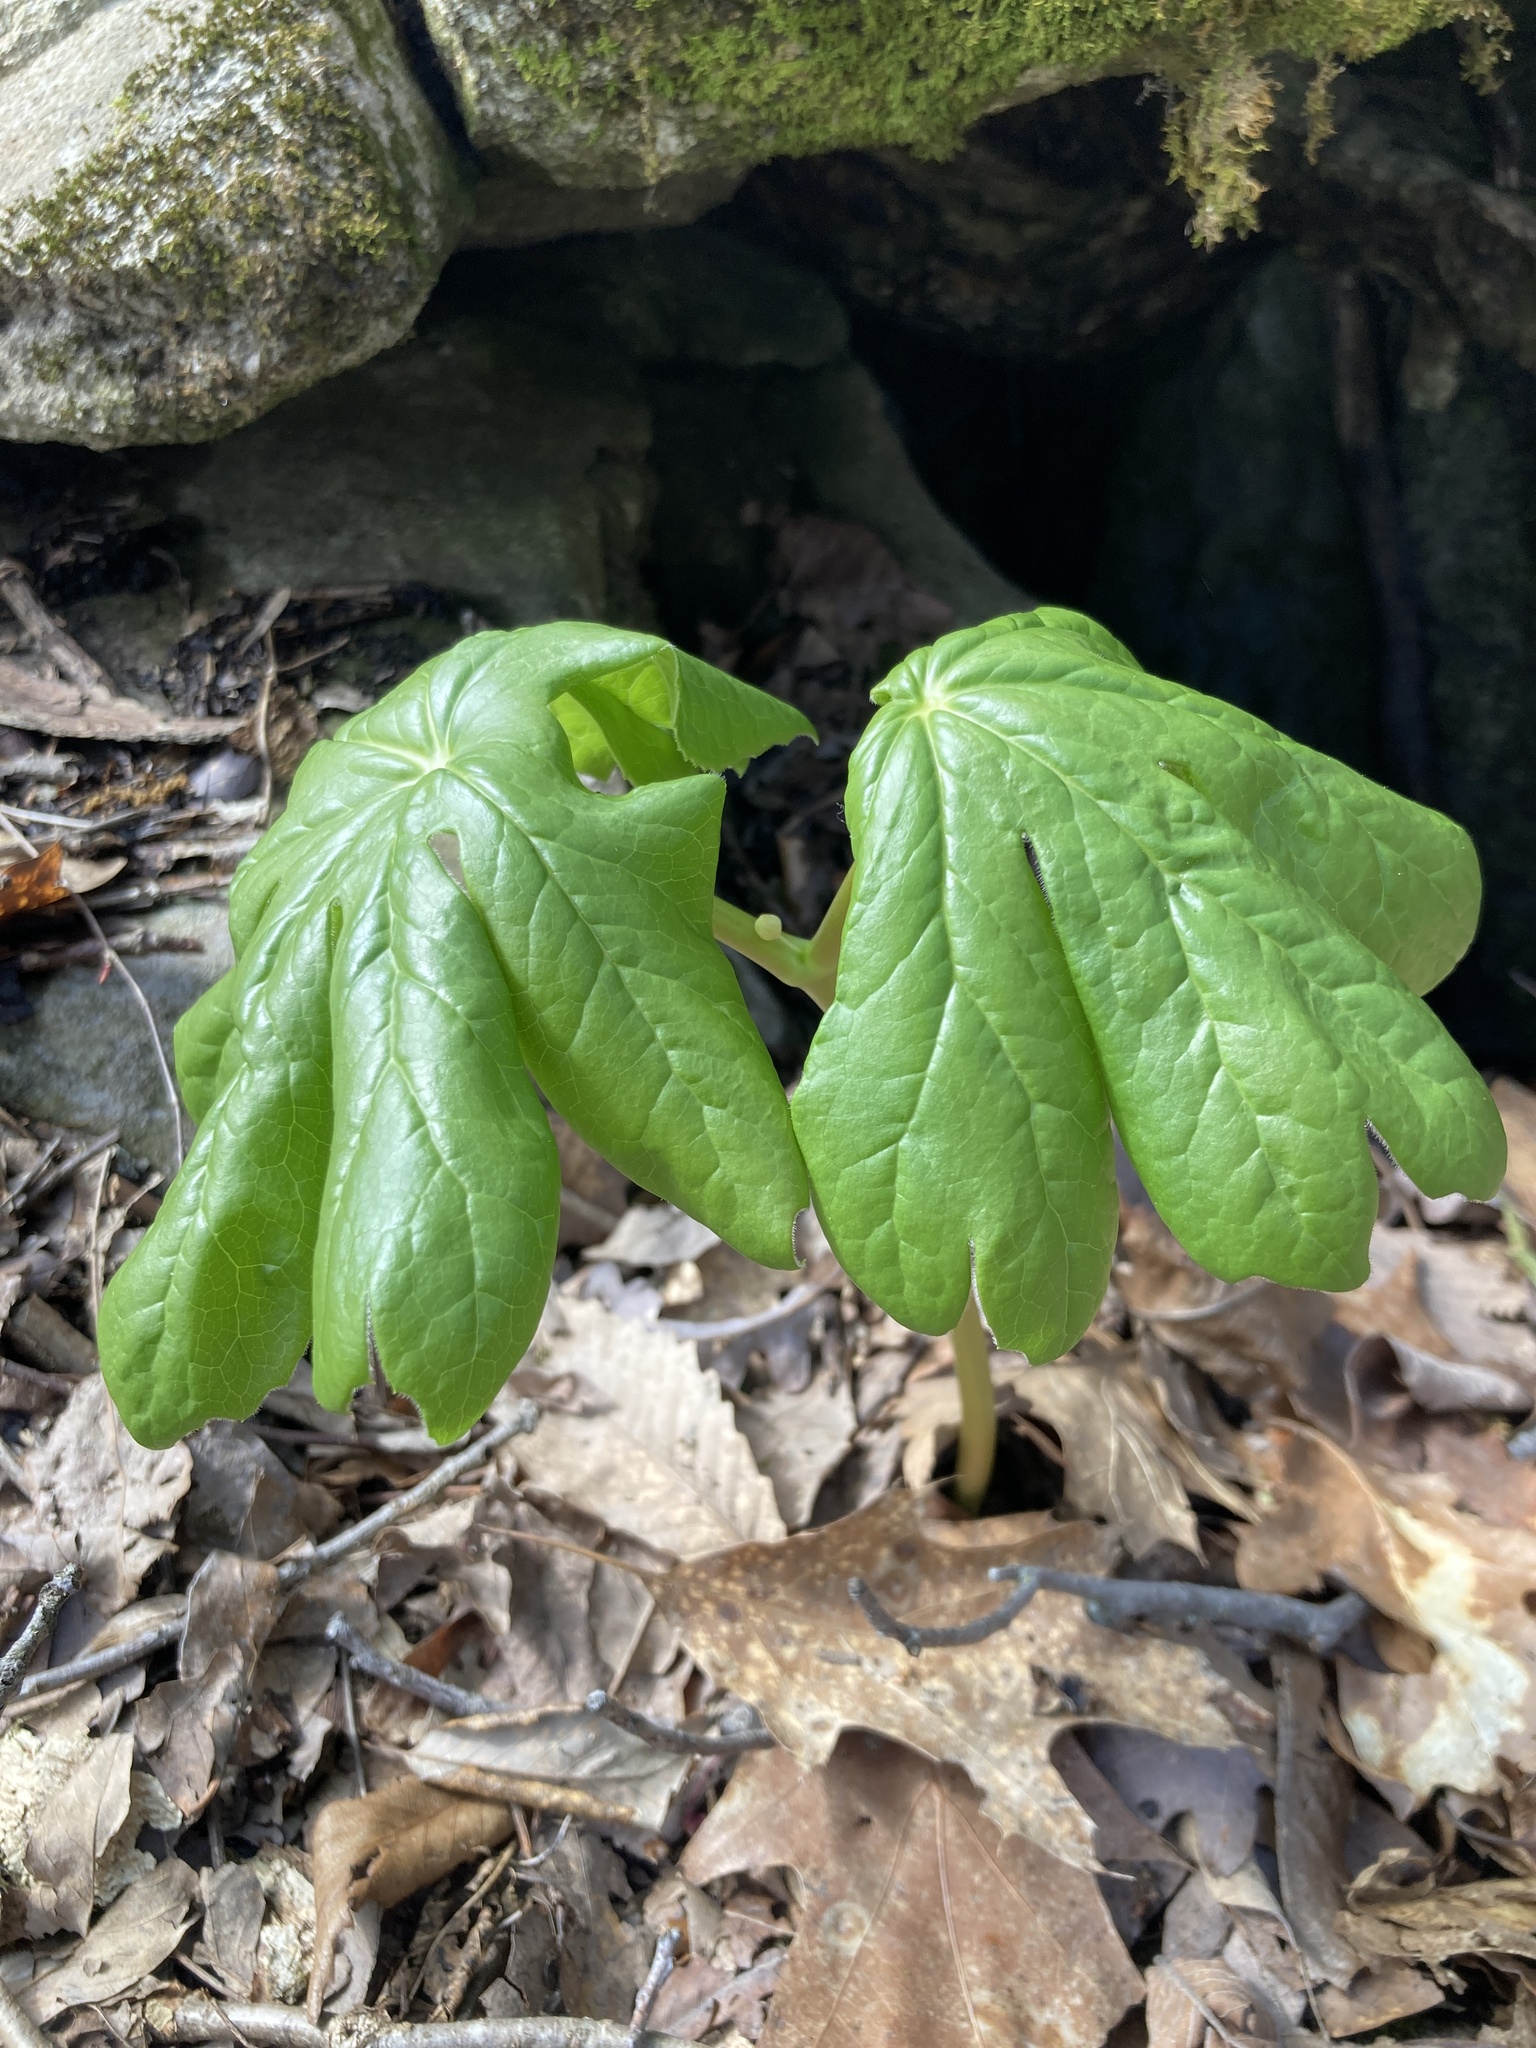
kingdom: Plantae
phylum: Tracheophyta
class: Magnoliopsida
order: Ranunculales
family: Berberidaceae
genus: Podophyllum
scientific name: Podophyllum peltatum
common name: Wild mandrake
